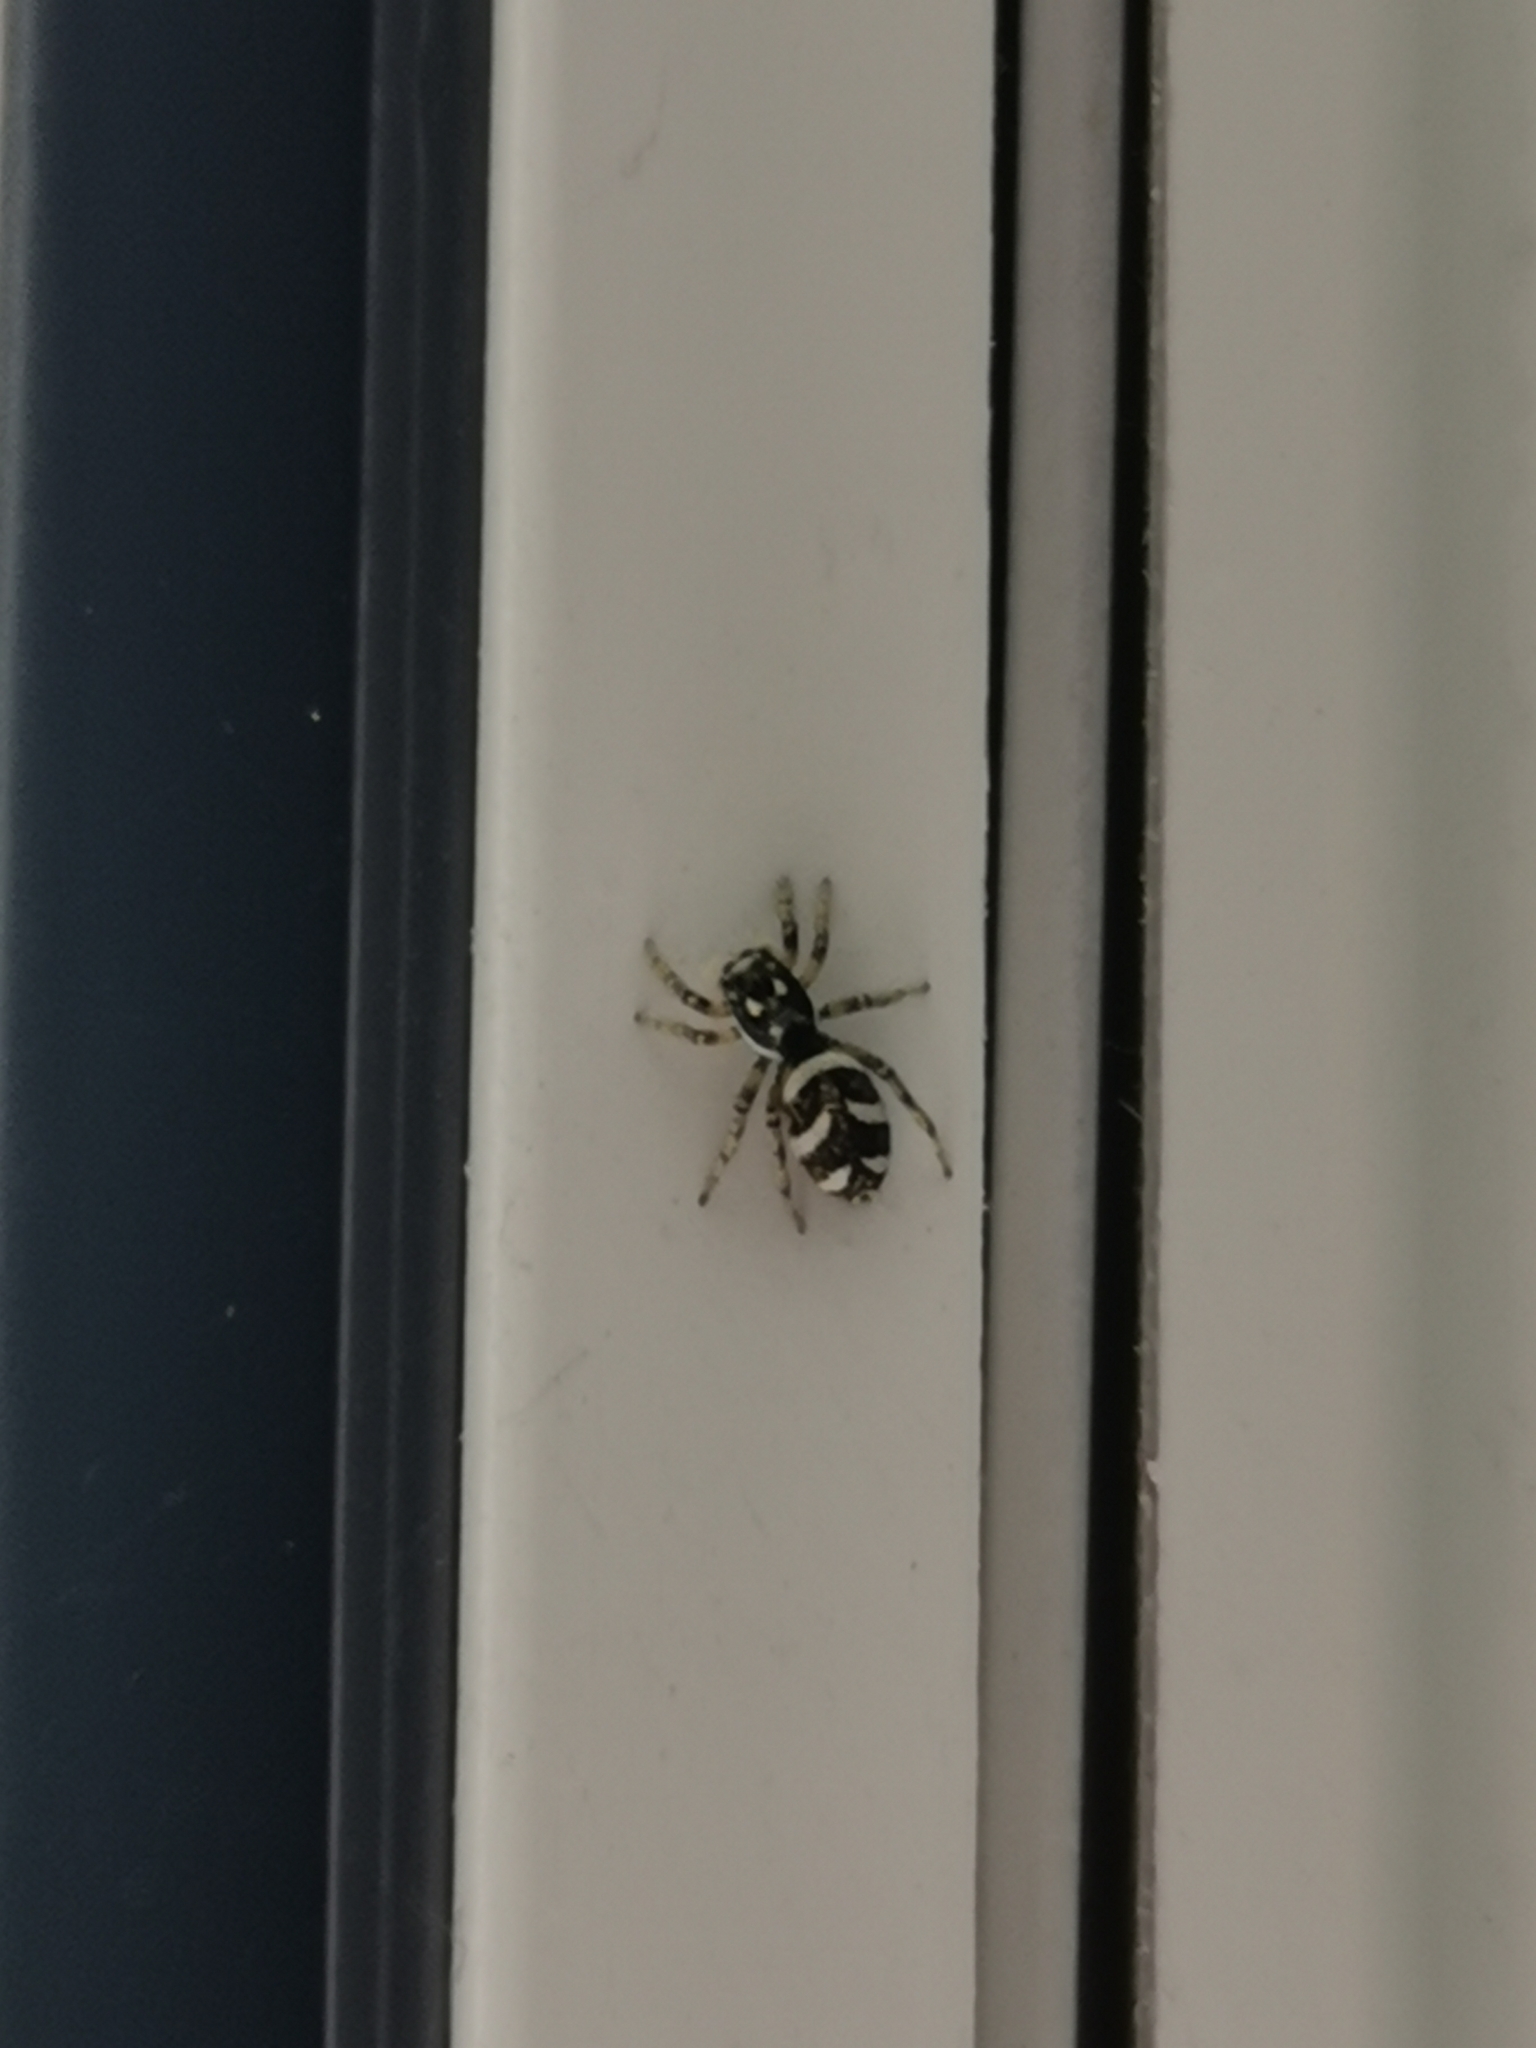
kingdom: Animalia
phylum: Arthropoda
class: Arachnida
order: Araneae
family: Salticidae
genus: Salticus
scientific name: Salticus scenicus
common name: Zebra jumper
